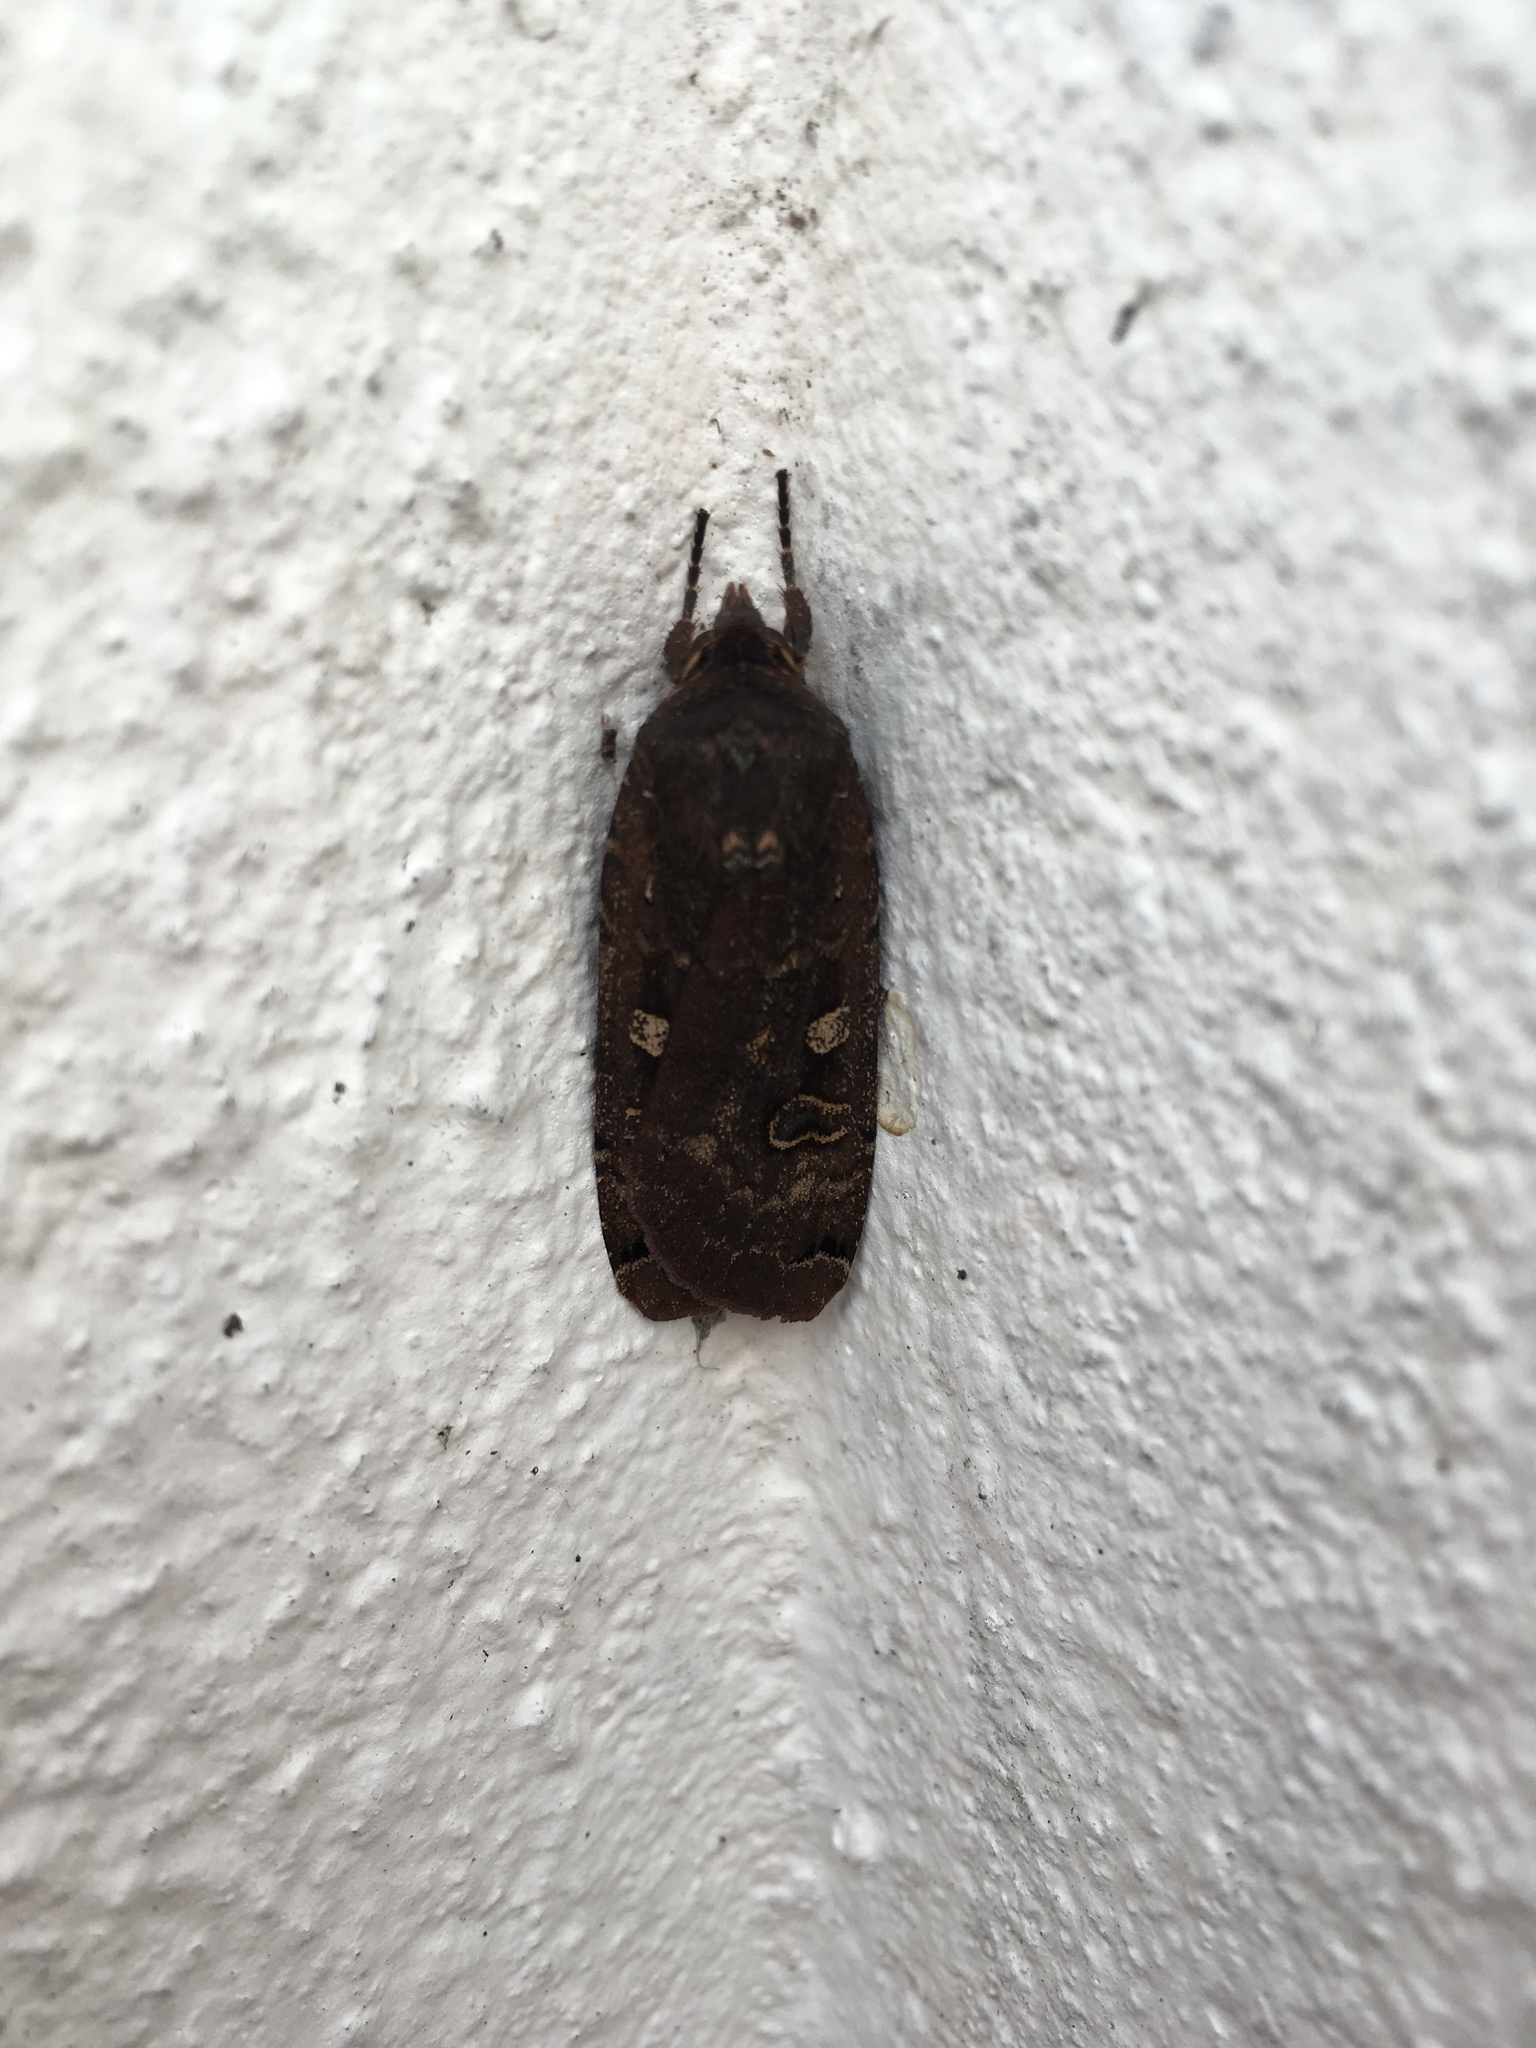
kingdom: Animalia
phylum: Arthropoda
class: Insecta
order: Lepidoptera
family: Noctuidae
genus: Noctua
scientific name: Noctua pronuba
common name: Large yellow underwing
